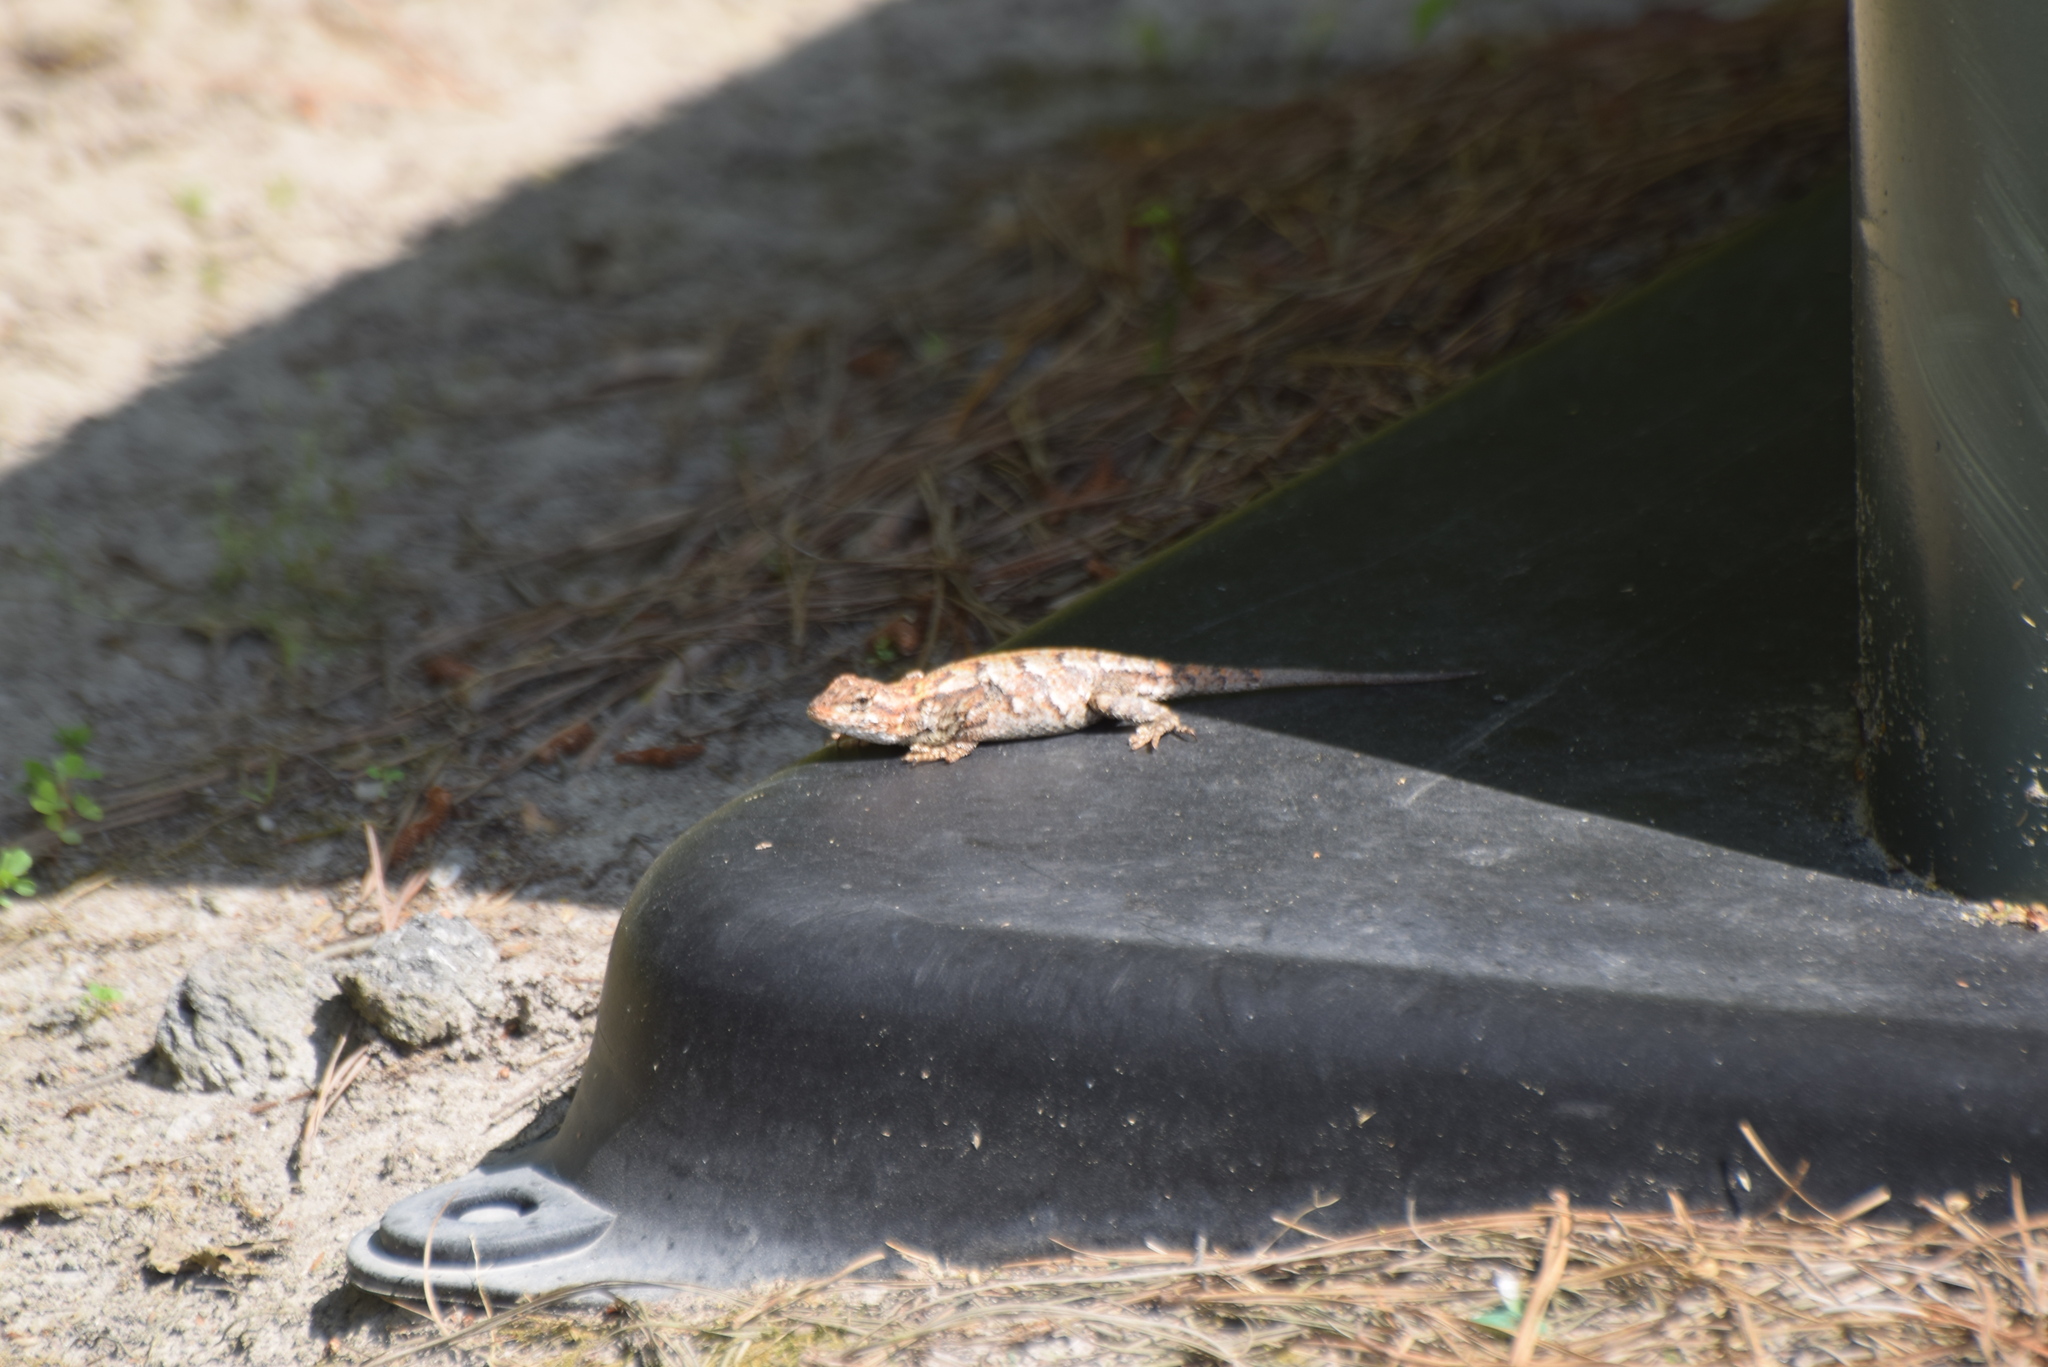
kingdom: Animalia
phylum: Chordata
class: Squamata
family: Phrynosomatidae
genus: Sceloporus
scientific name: Sceloporus undulatus
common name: Eastern fence lizard
